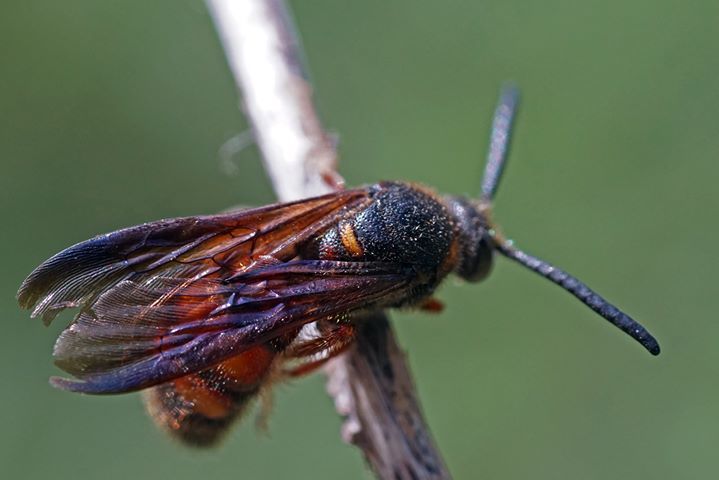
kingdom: Animalia
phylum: Arthropoda
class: Insecta
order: Hymenoptera
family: Scoliidae
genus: Scolia
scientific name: Scolia nobilitata
